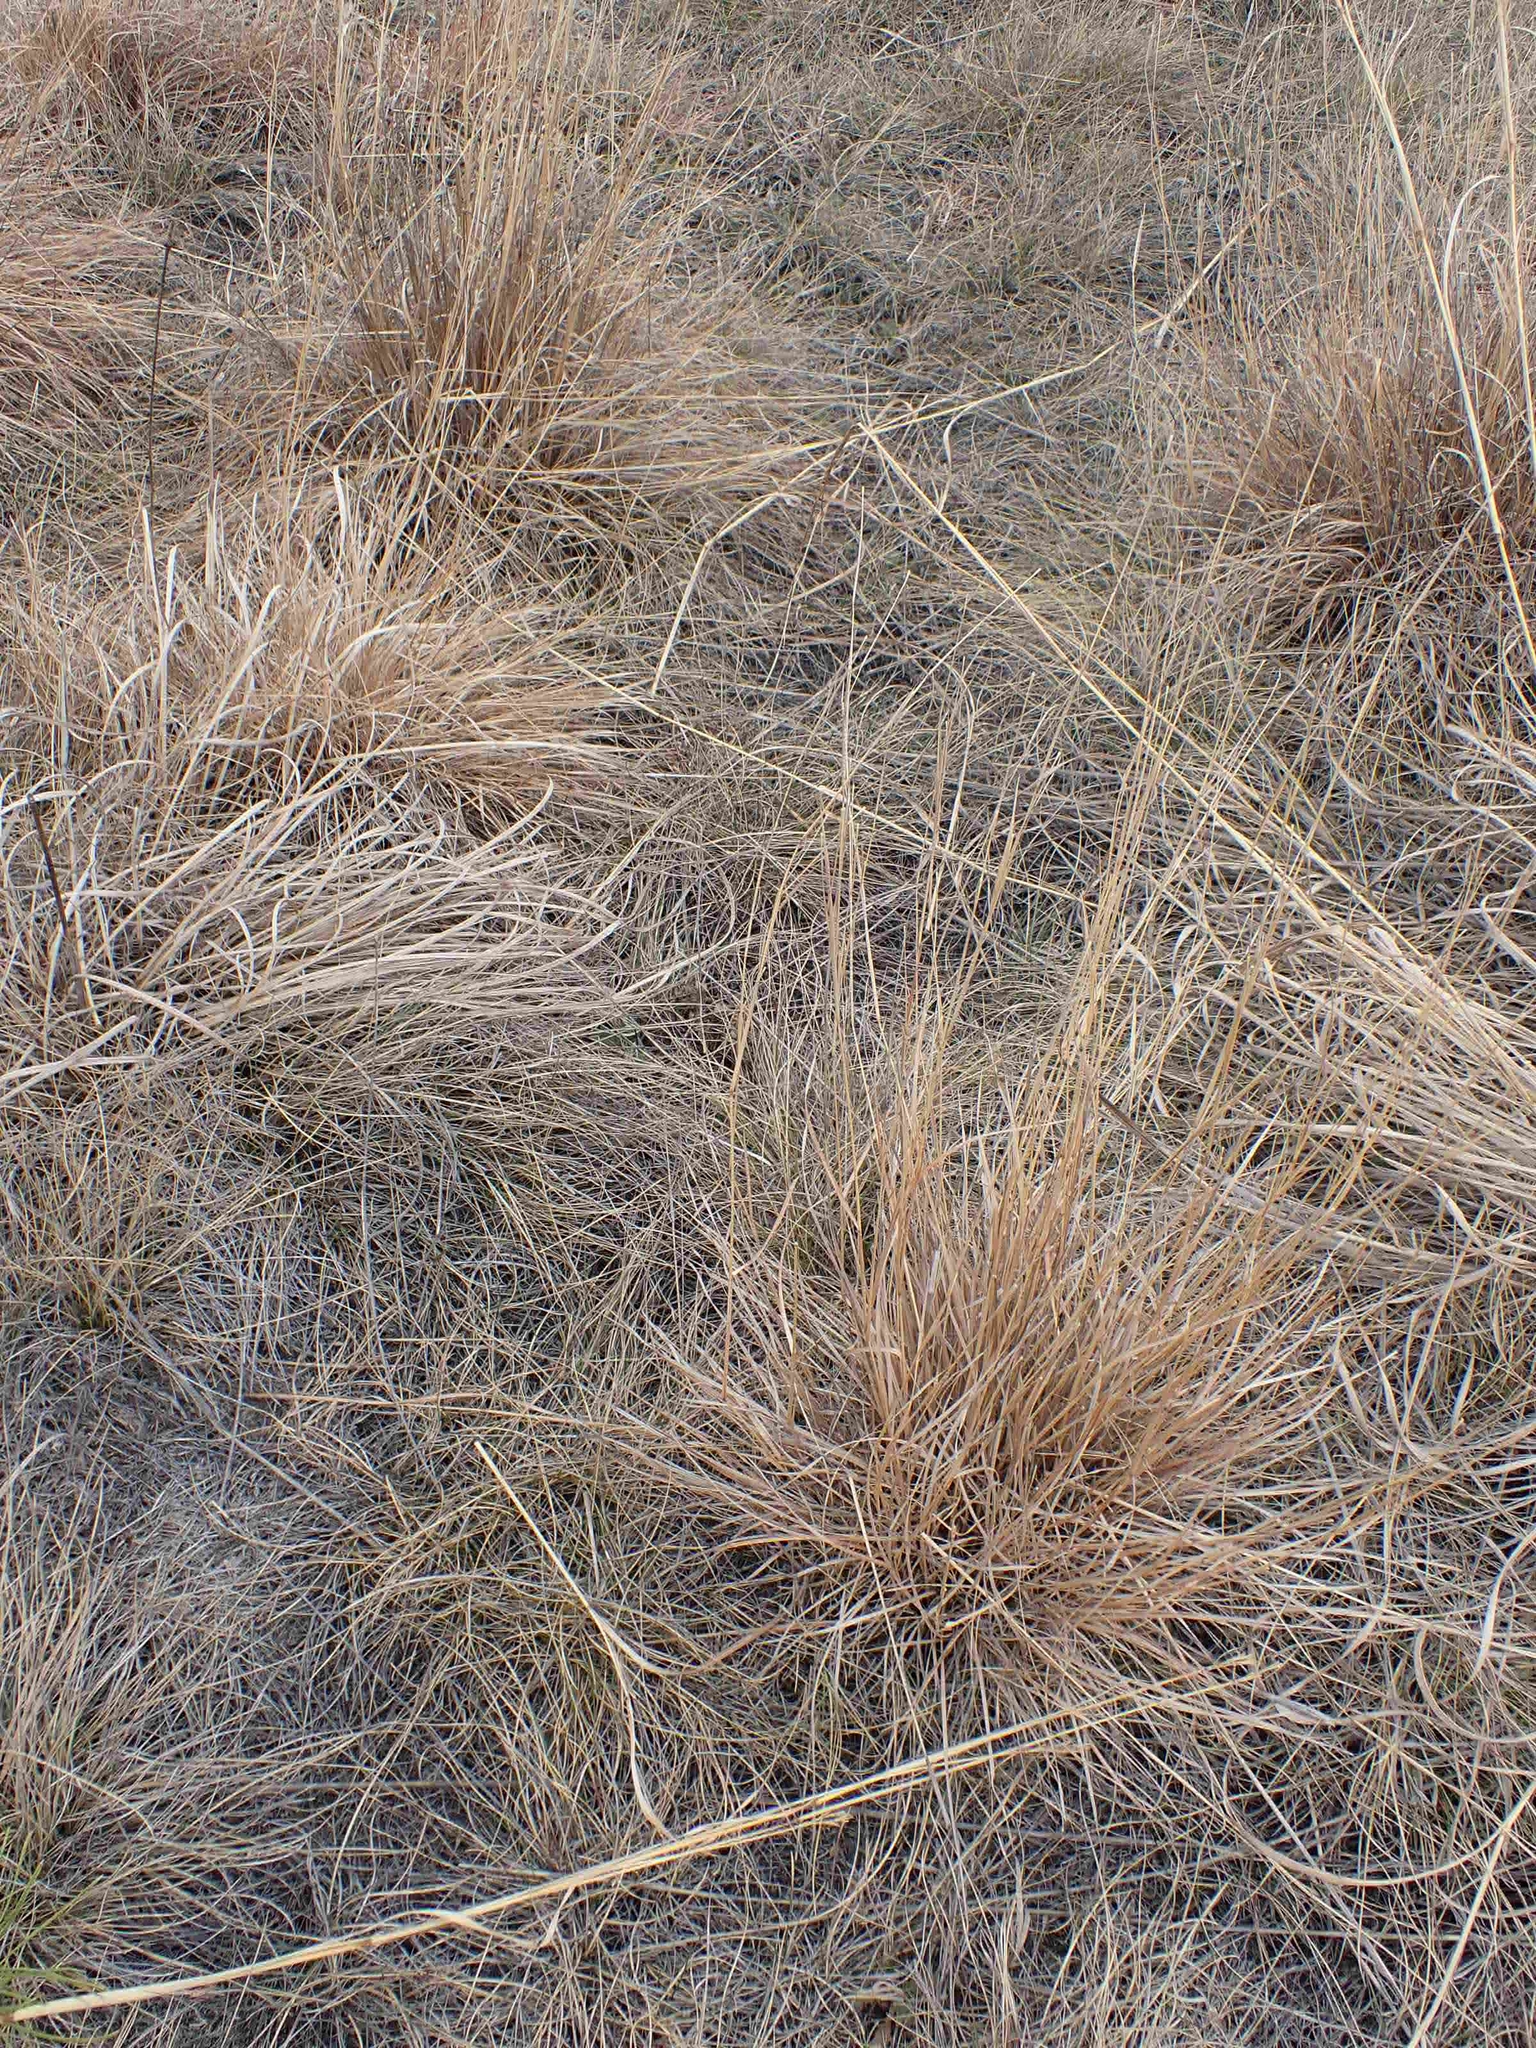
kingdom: Plantae
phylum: Tracheophyta
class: Liliopsida
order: Poales
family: Poaceae
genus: Schizachyrium
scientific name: Schizachyrium scoparium
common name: Little bluestem
